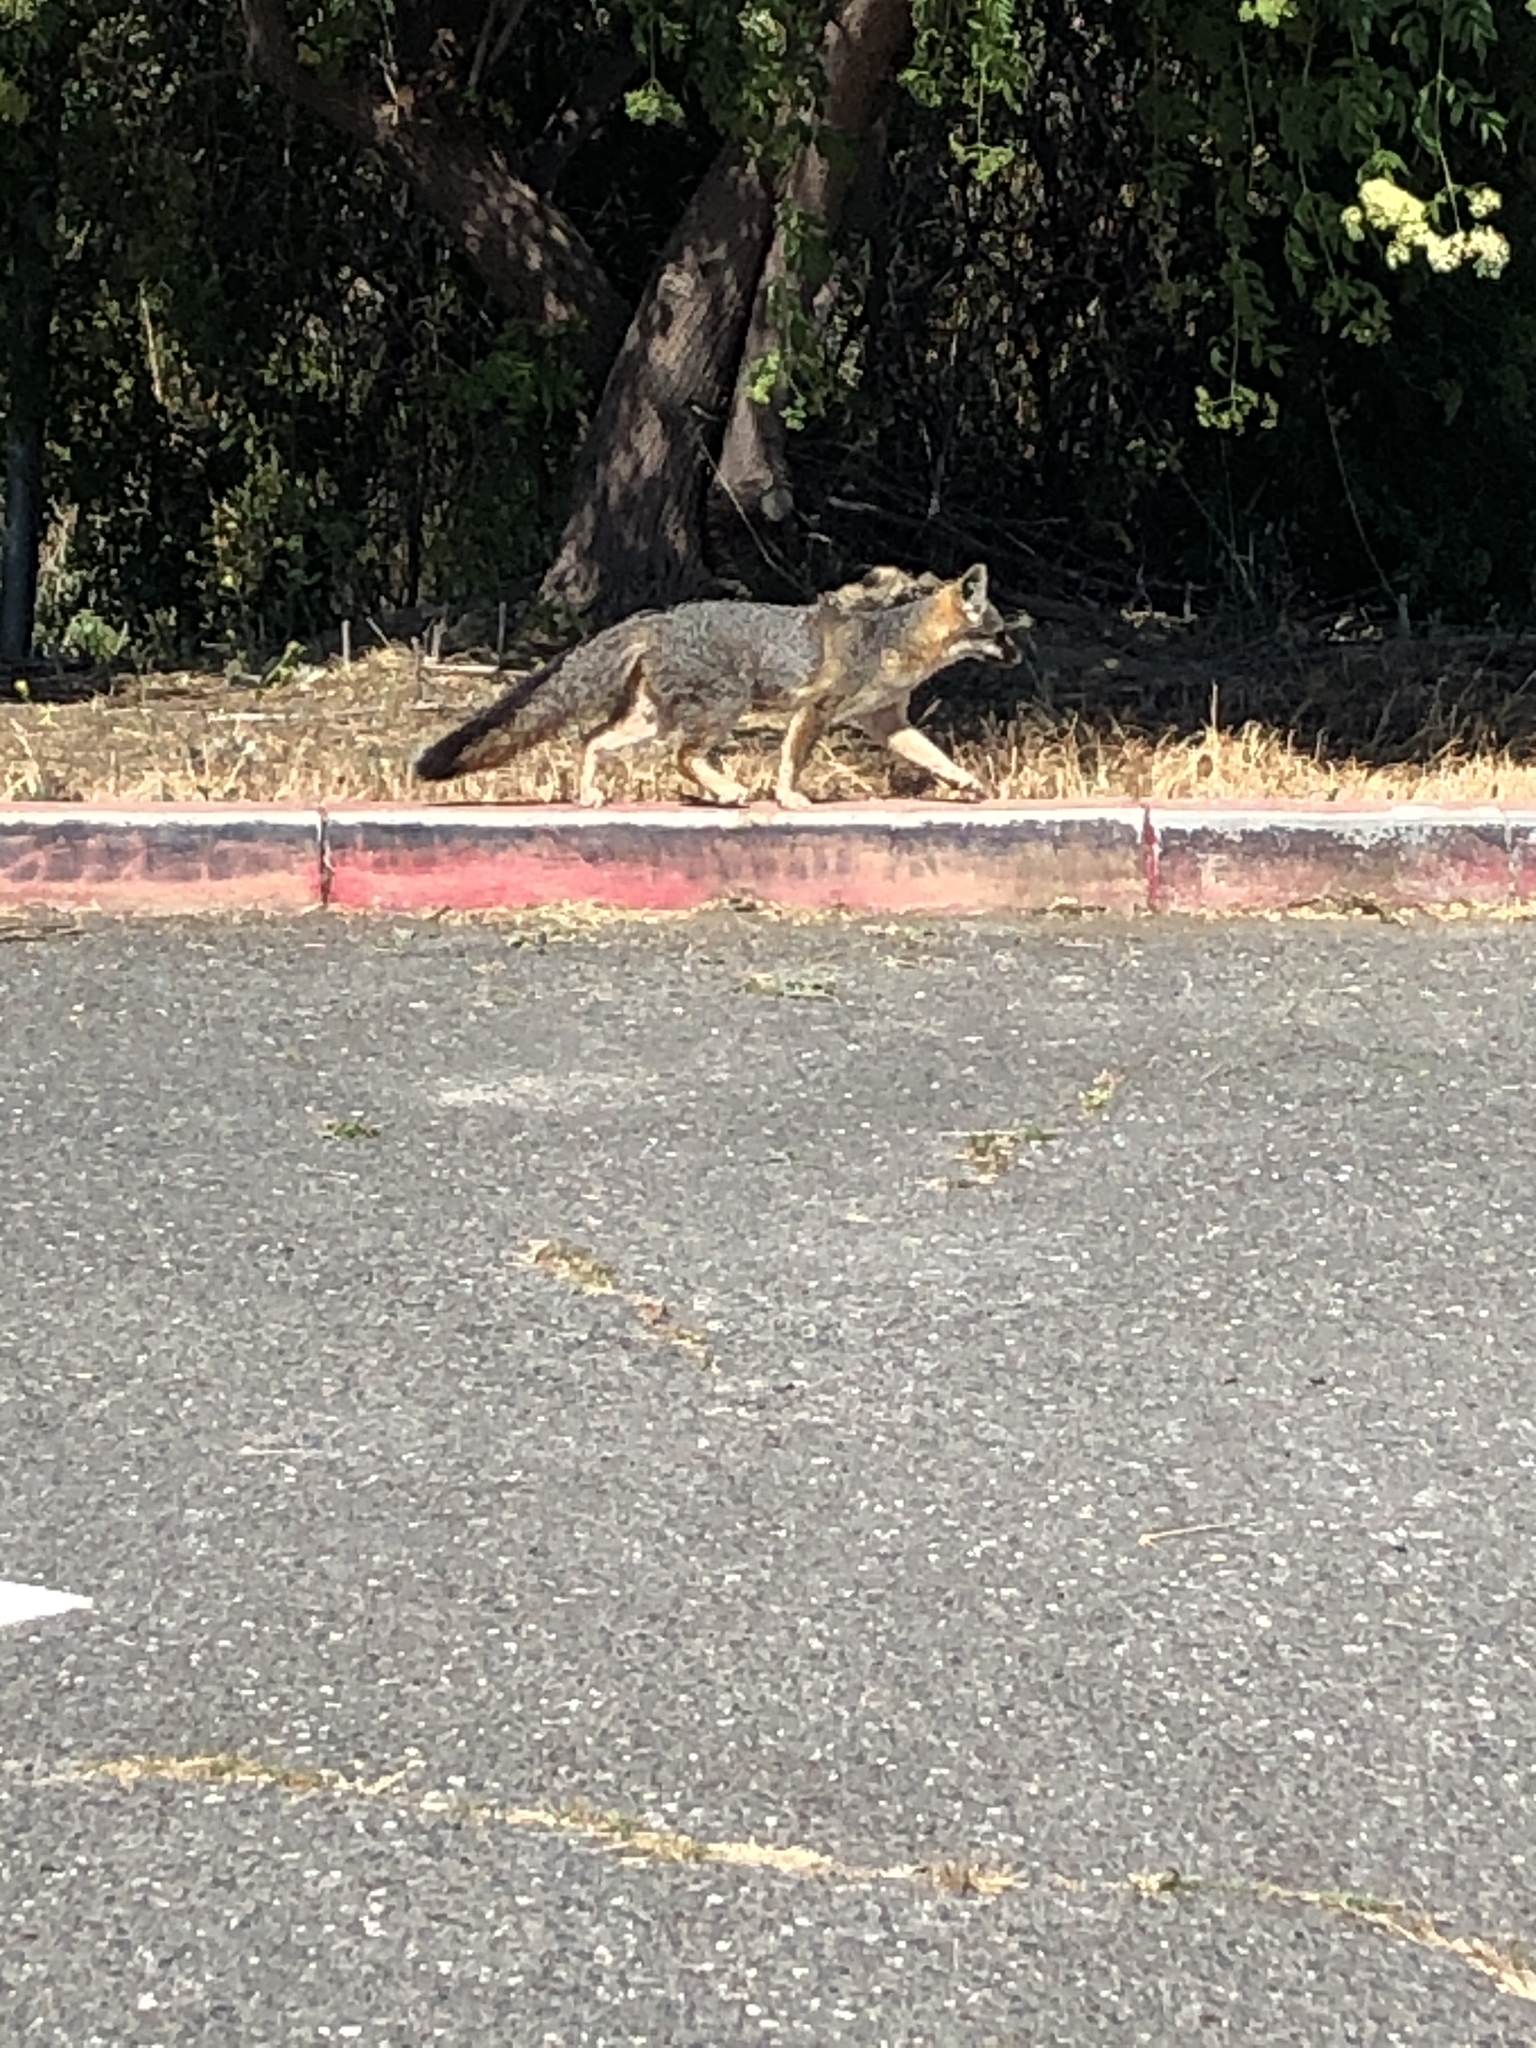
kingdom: Animalia
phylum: Chordata
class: Mammalia
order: Carnivora
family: Canidae
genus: Urocyon
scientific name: Urocyon cinereoargenteus
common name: Gray fox
